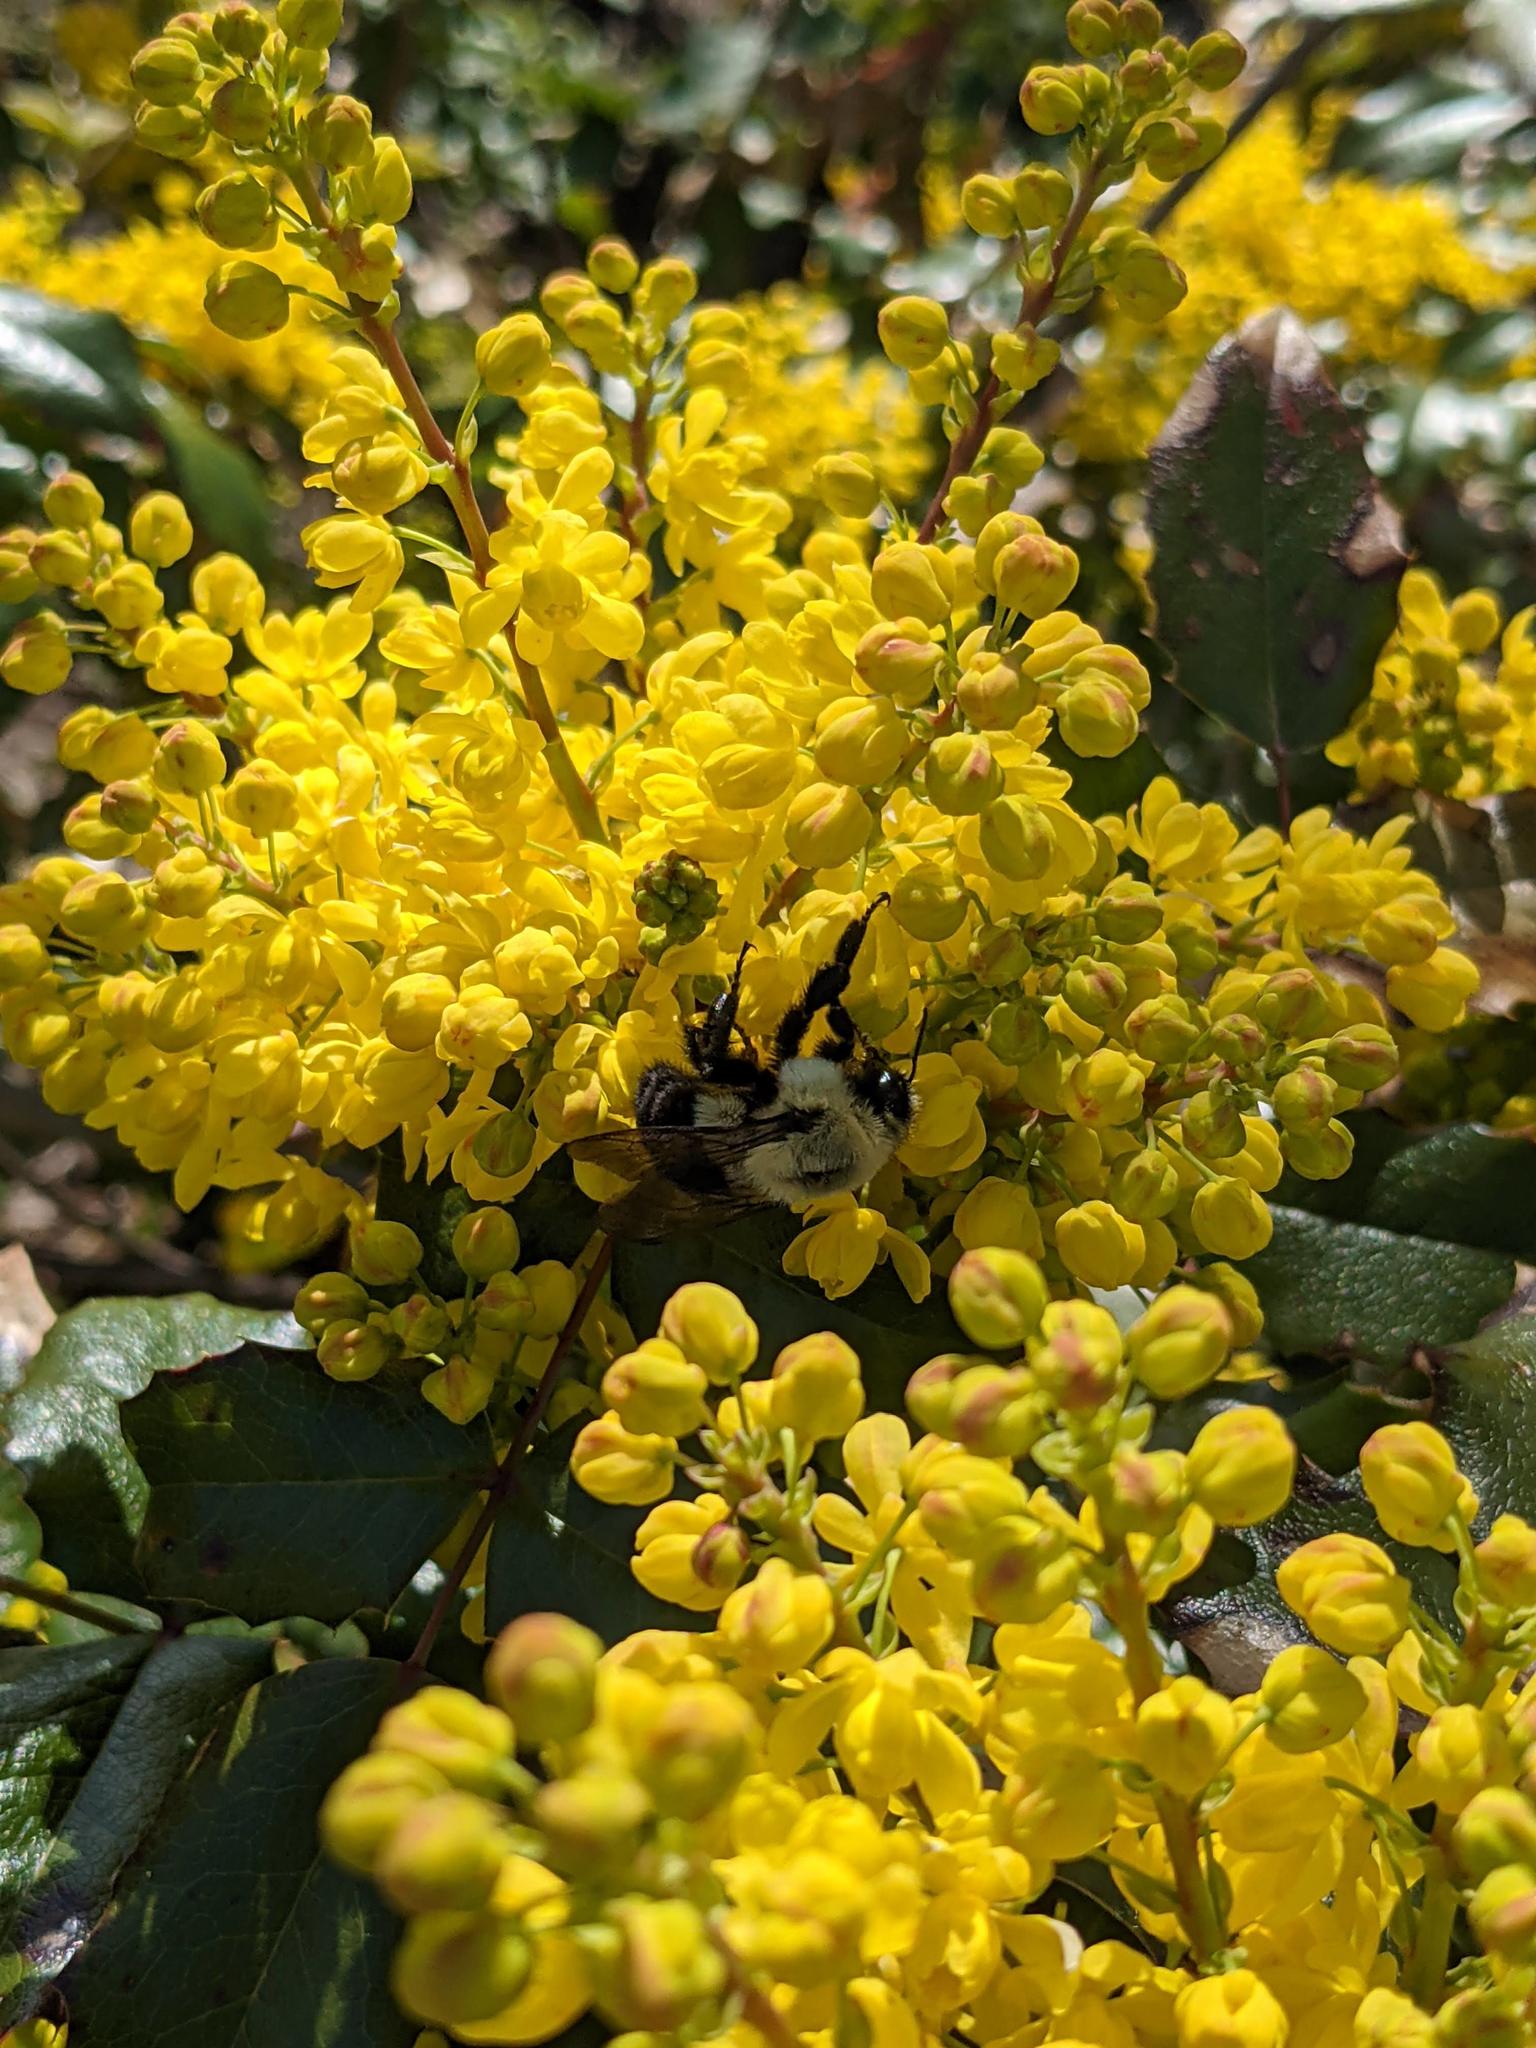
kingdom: Animalia
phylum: Arthropoda
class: Insecta
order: Hymenoptera
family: Apidae
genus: Bombus
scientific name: Bombus impatiens
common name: Common eastern bumble bee
